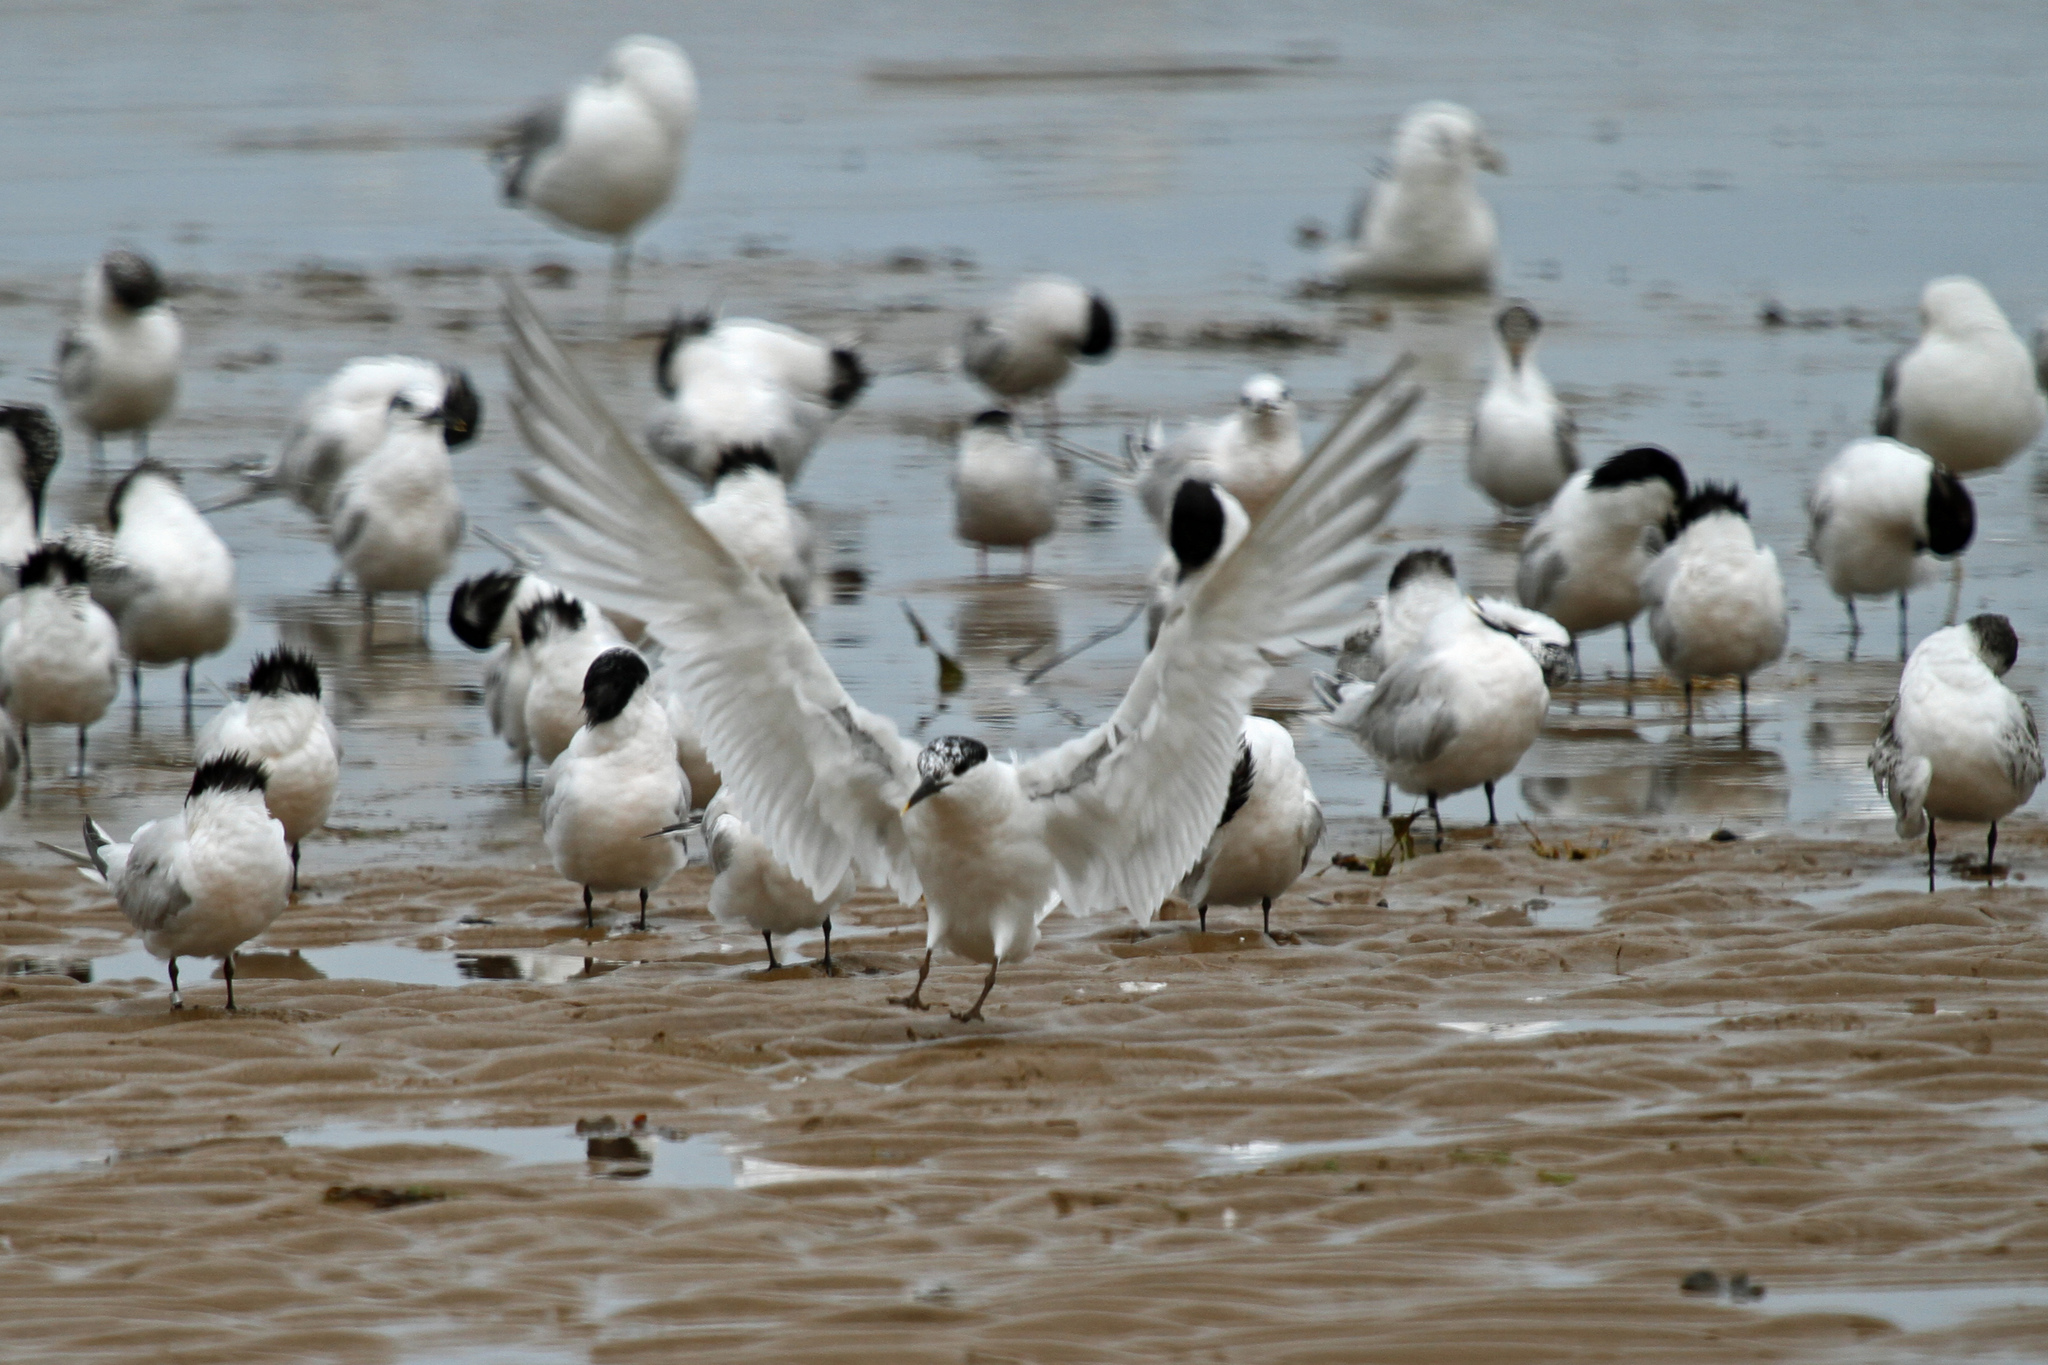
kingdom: Animalia
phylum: Chordata
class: Aves
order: Charadriiformes
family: Laridae
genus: Thalasseus
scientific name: Thalasseus sandvicensis
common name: Sandwich tern
